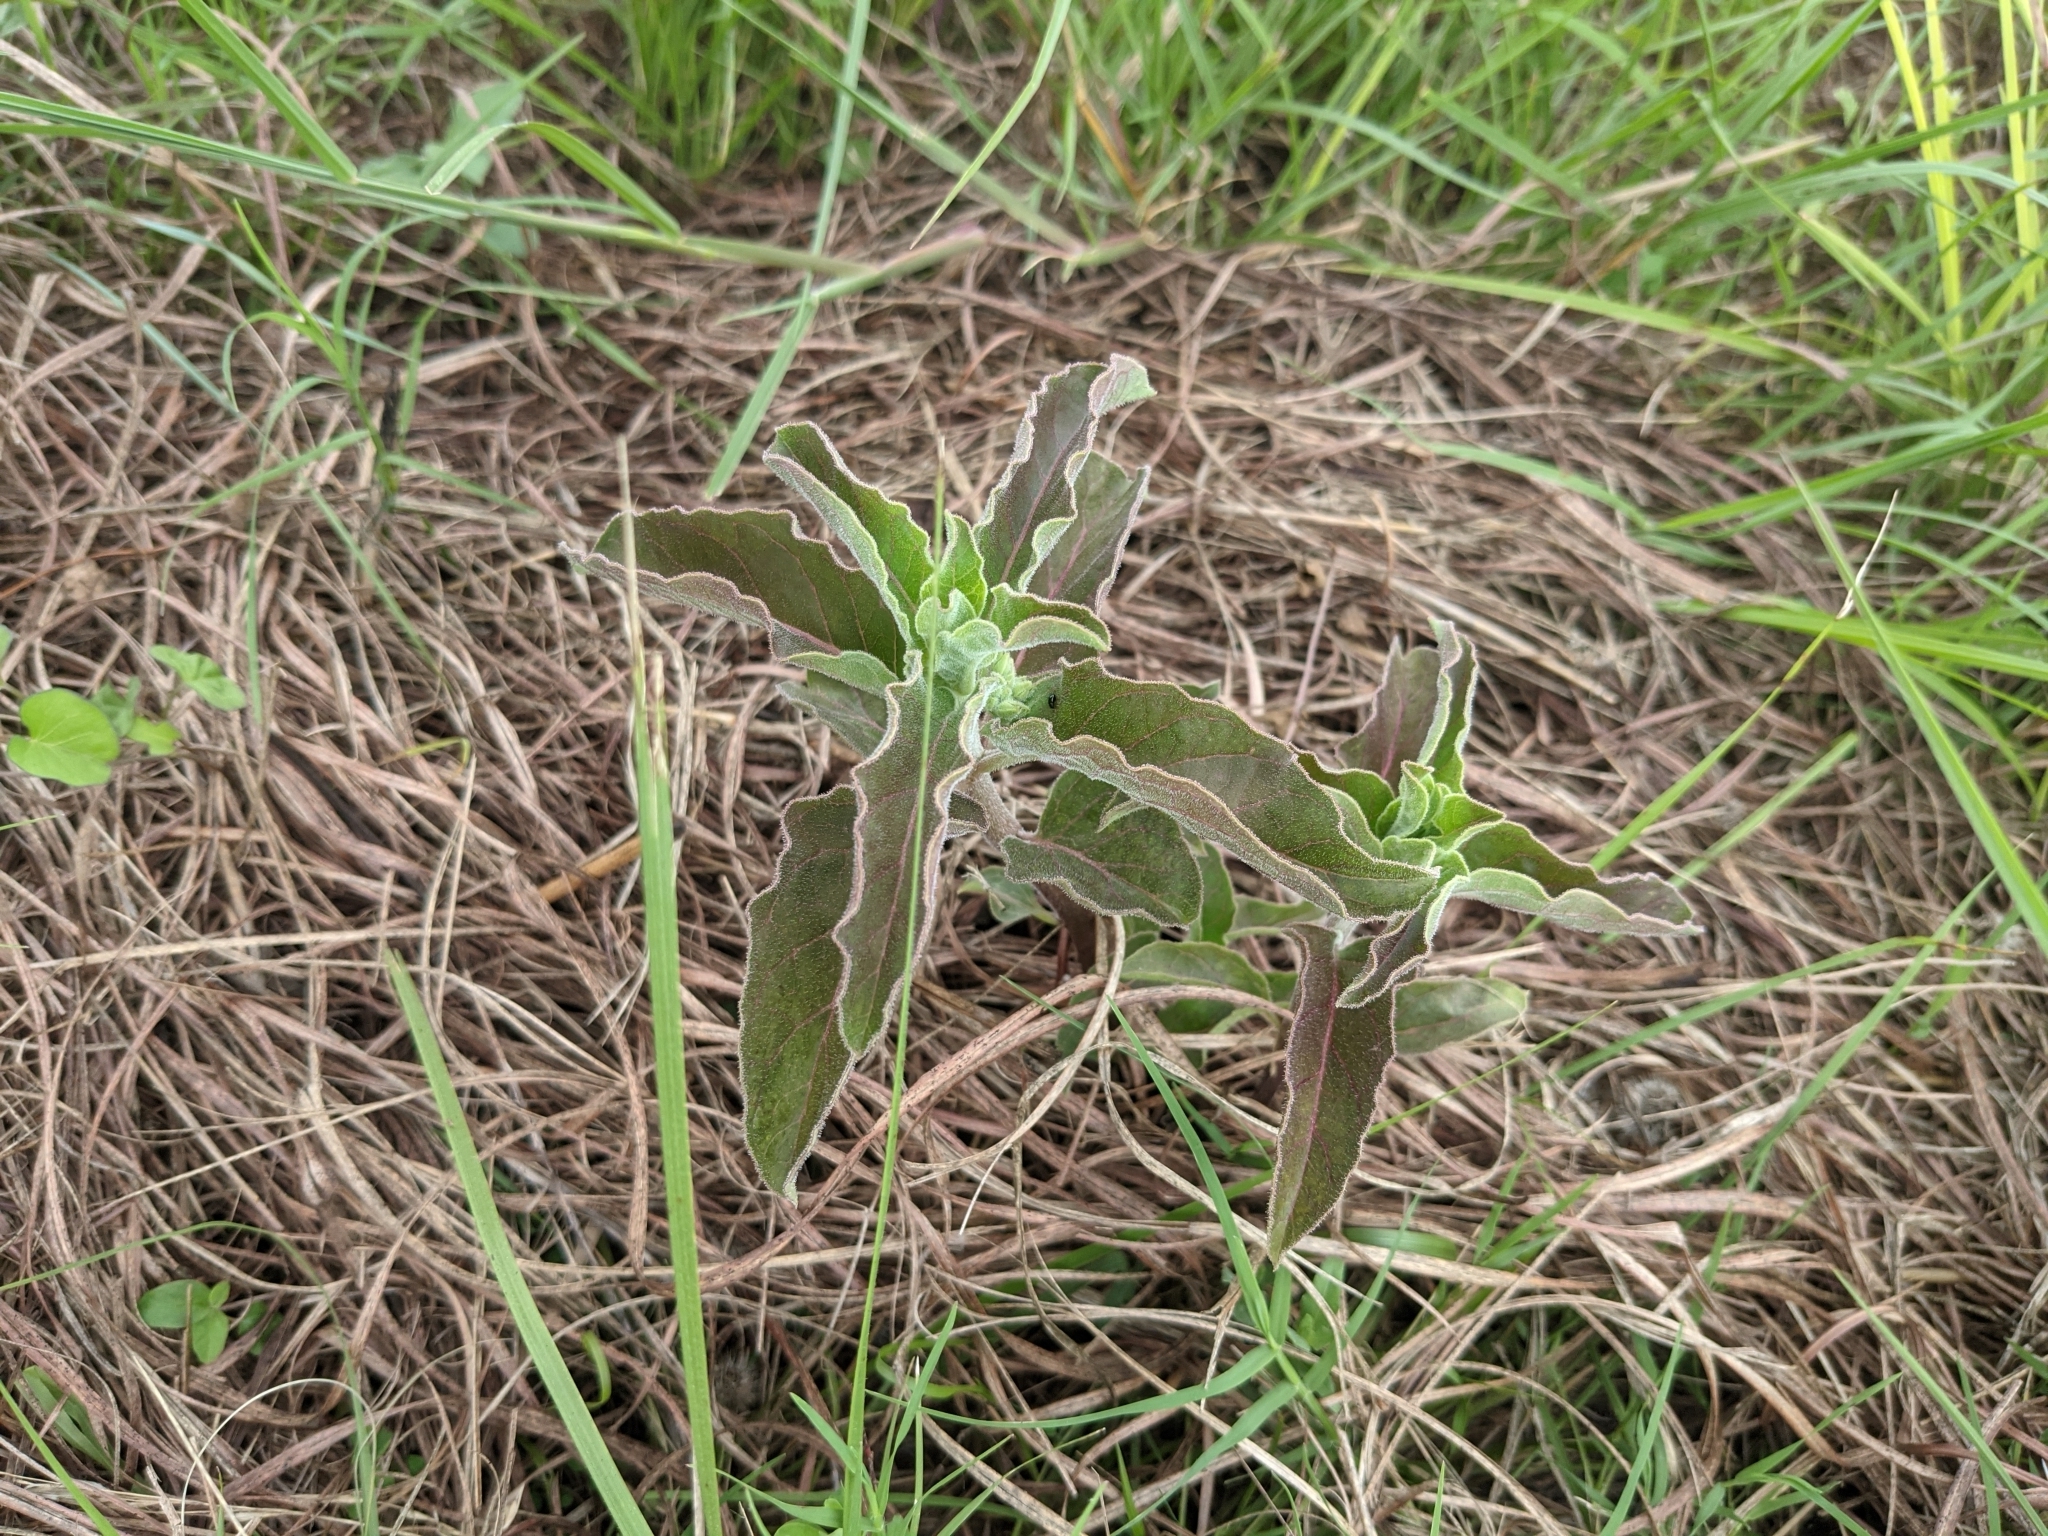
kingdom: Plantae
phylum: Tracheophyta
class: Magnoliopsida
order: Gentianales
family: Apocynaceae
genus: Asclepias
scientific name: Asclepias oenotheroides
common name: Zizotes milkweed
